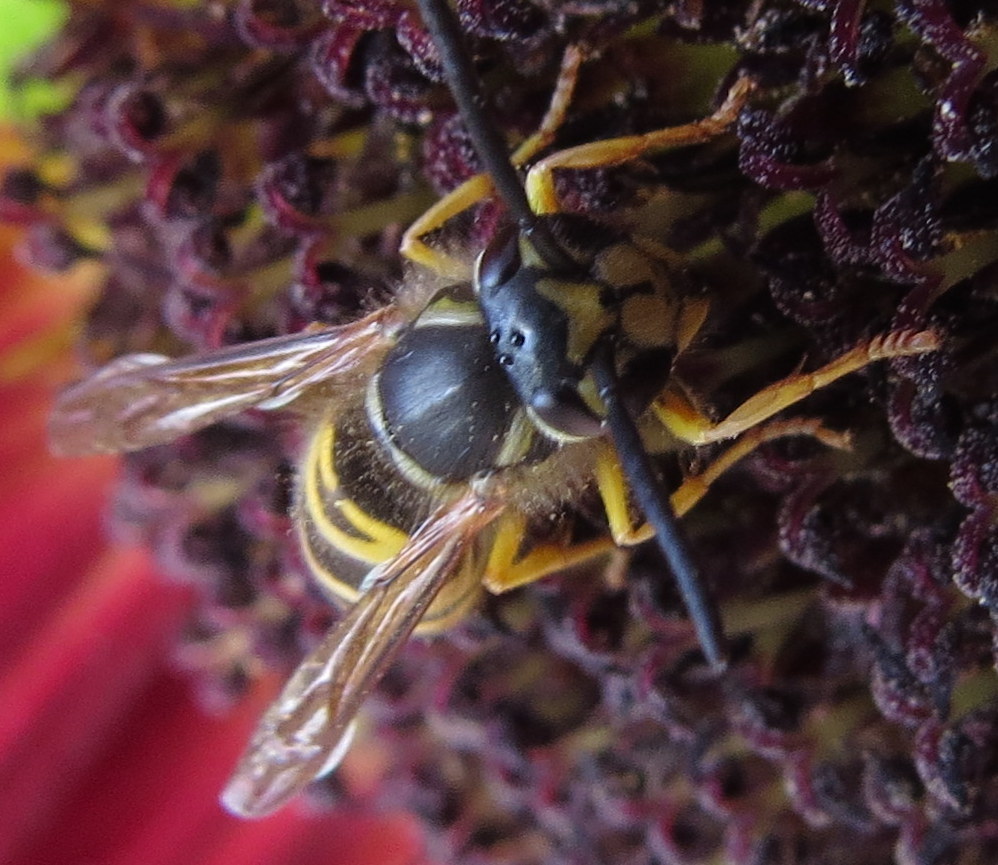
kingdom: Animalia
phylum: Arthropoda
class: Insecta
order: Hymenoptera
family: Vespidae
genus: Vespula
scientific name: Vespula maculifrons
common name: Eastern yellowjacket
